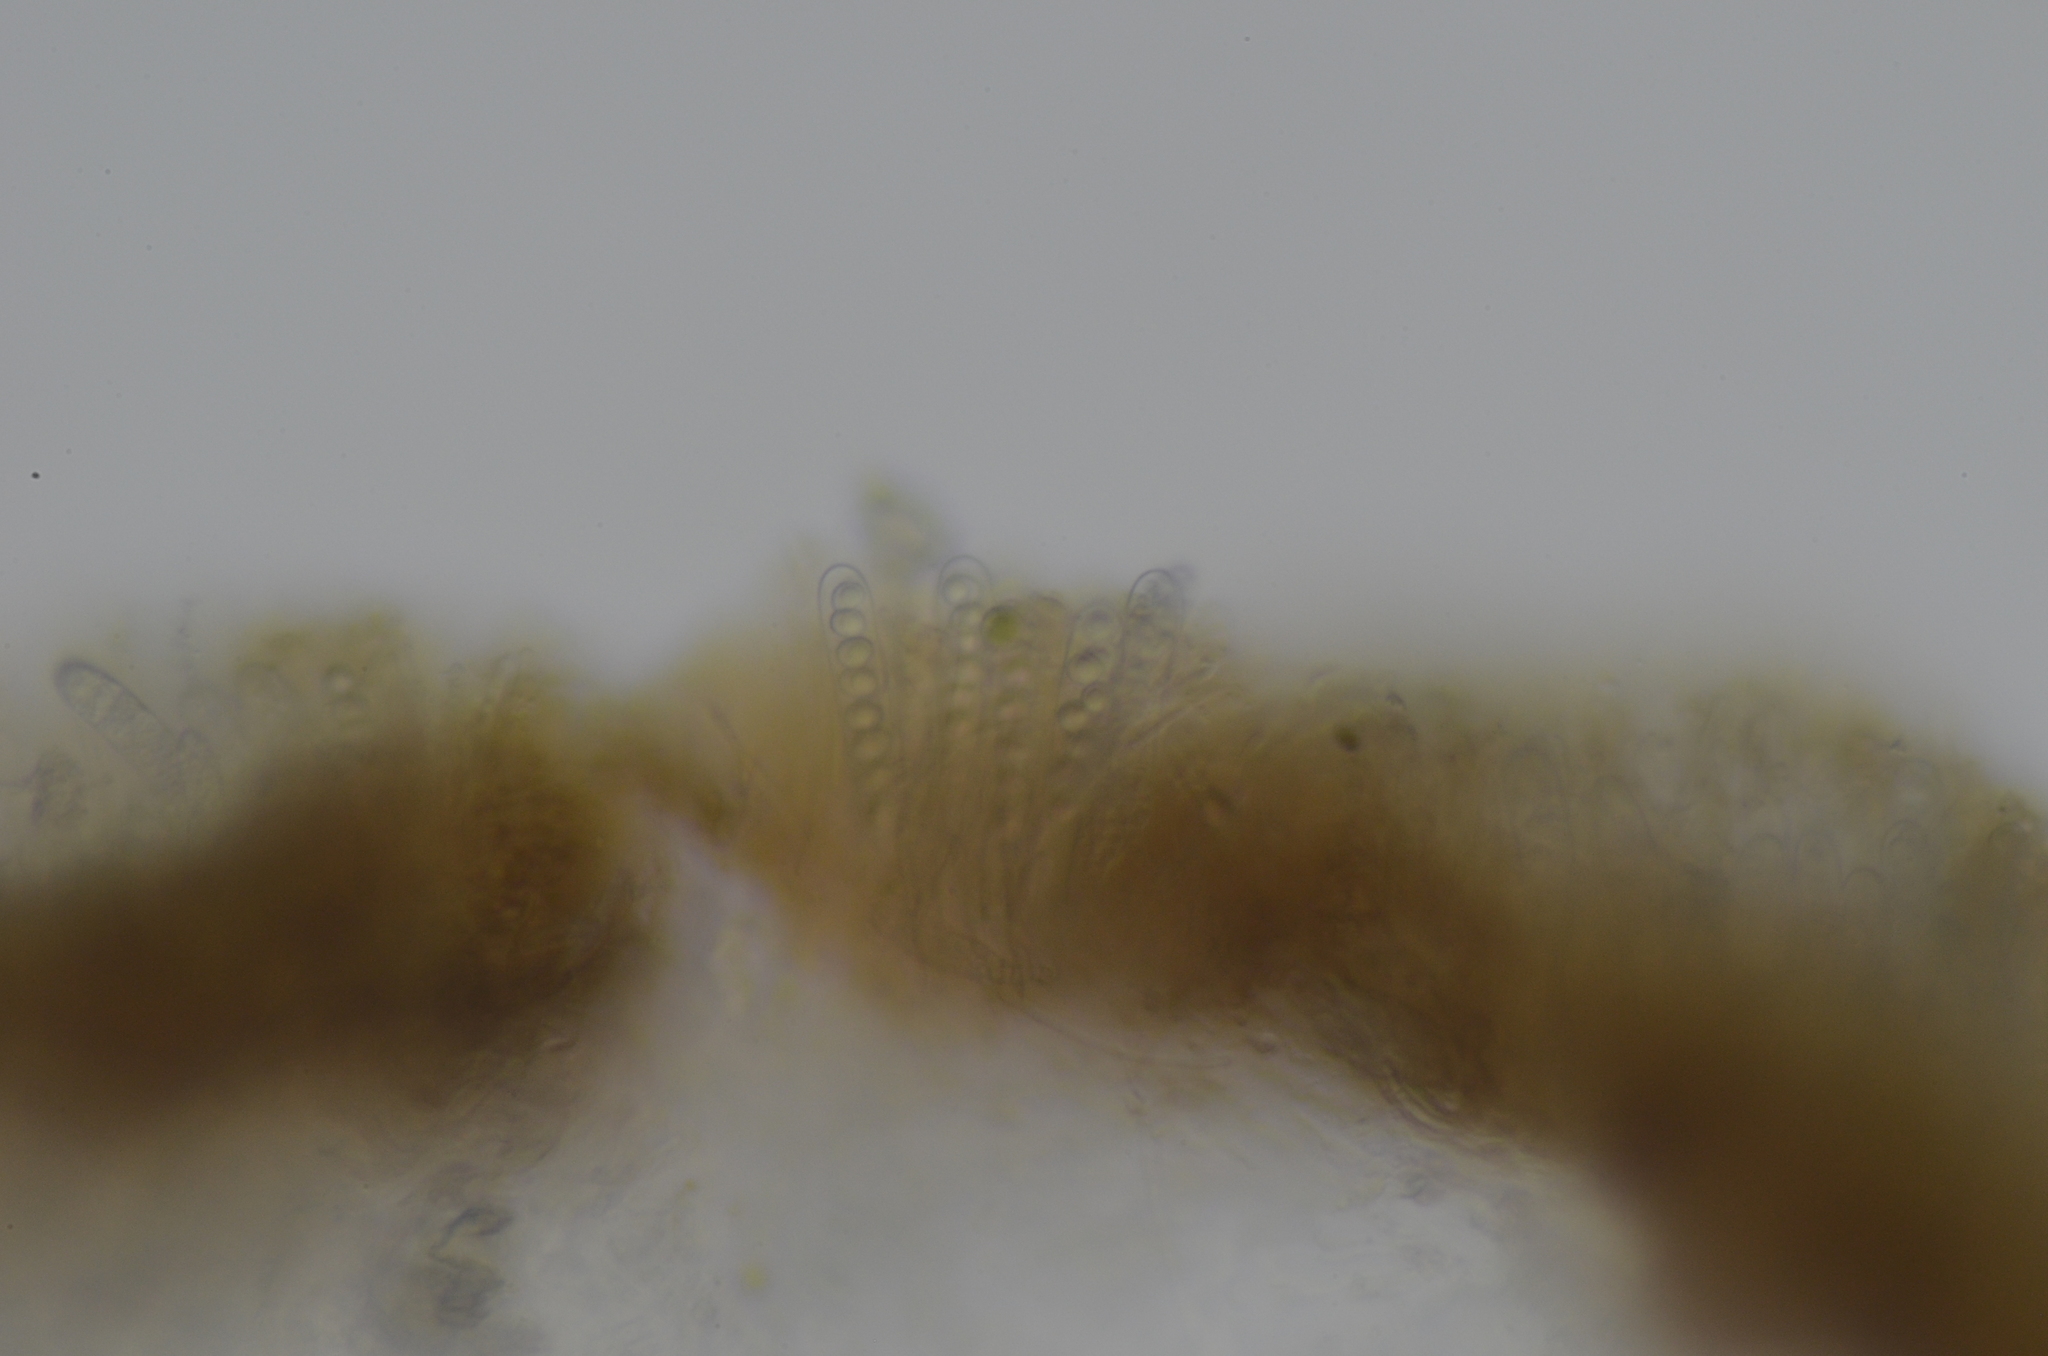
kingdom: Fungi
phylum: Ascomycota
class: Leotiomycetes
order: Phacidiales
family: Helicogoniaceae
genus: Geltingia
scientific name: Geltingia associata
